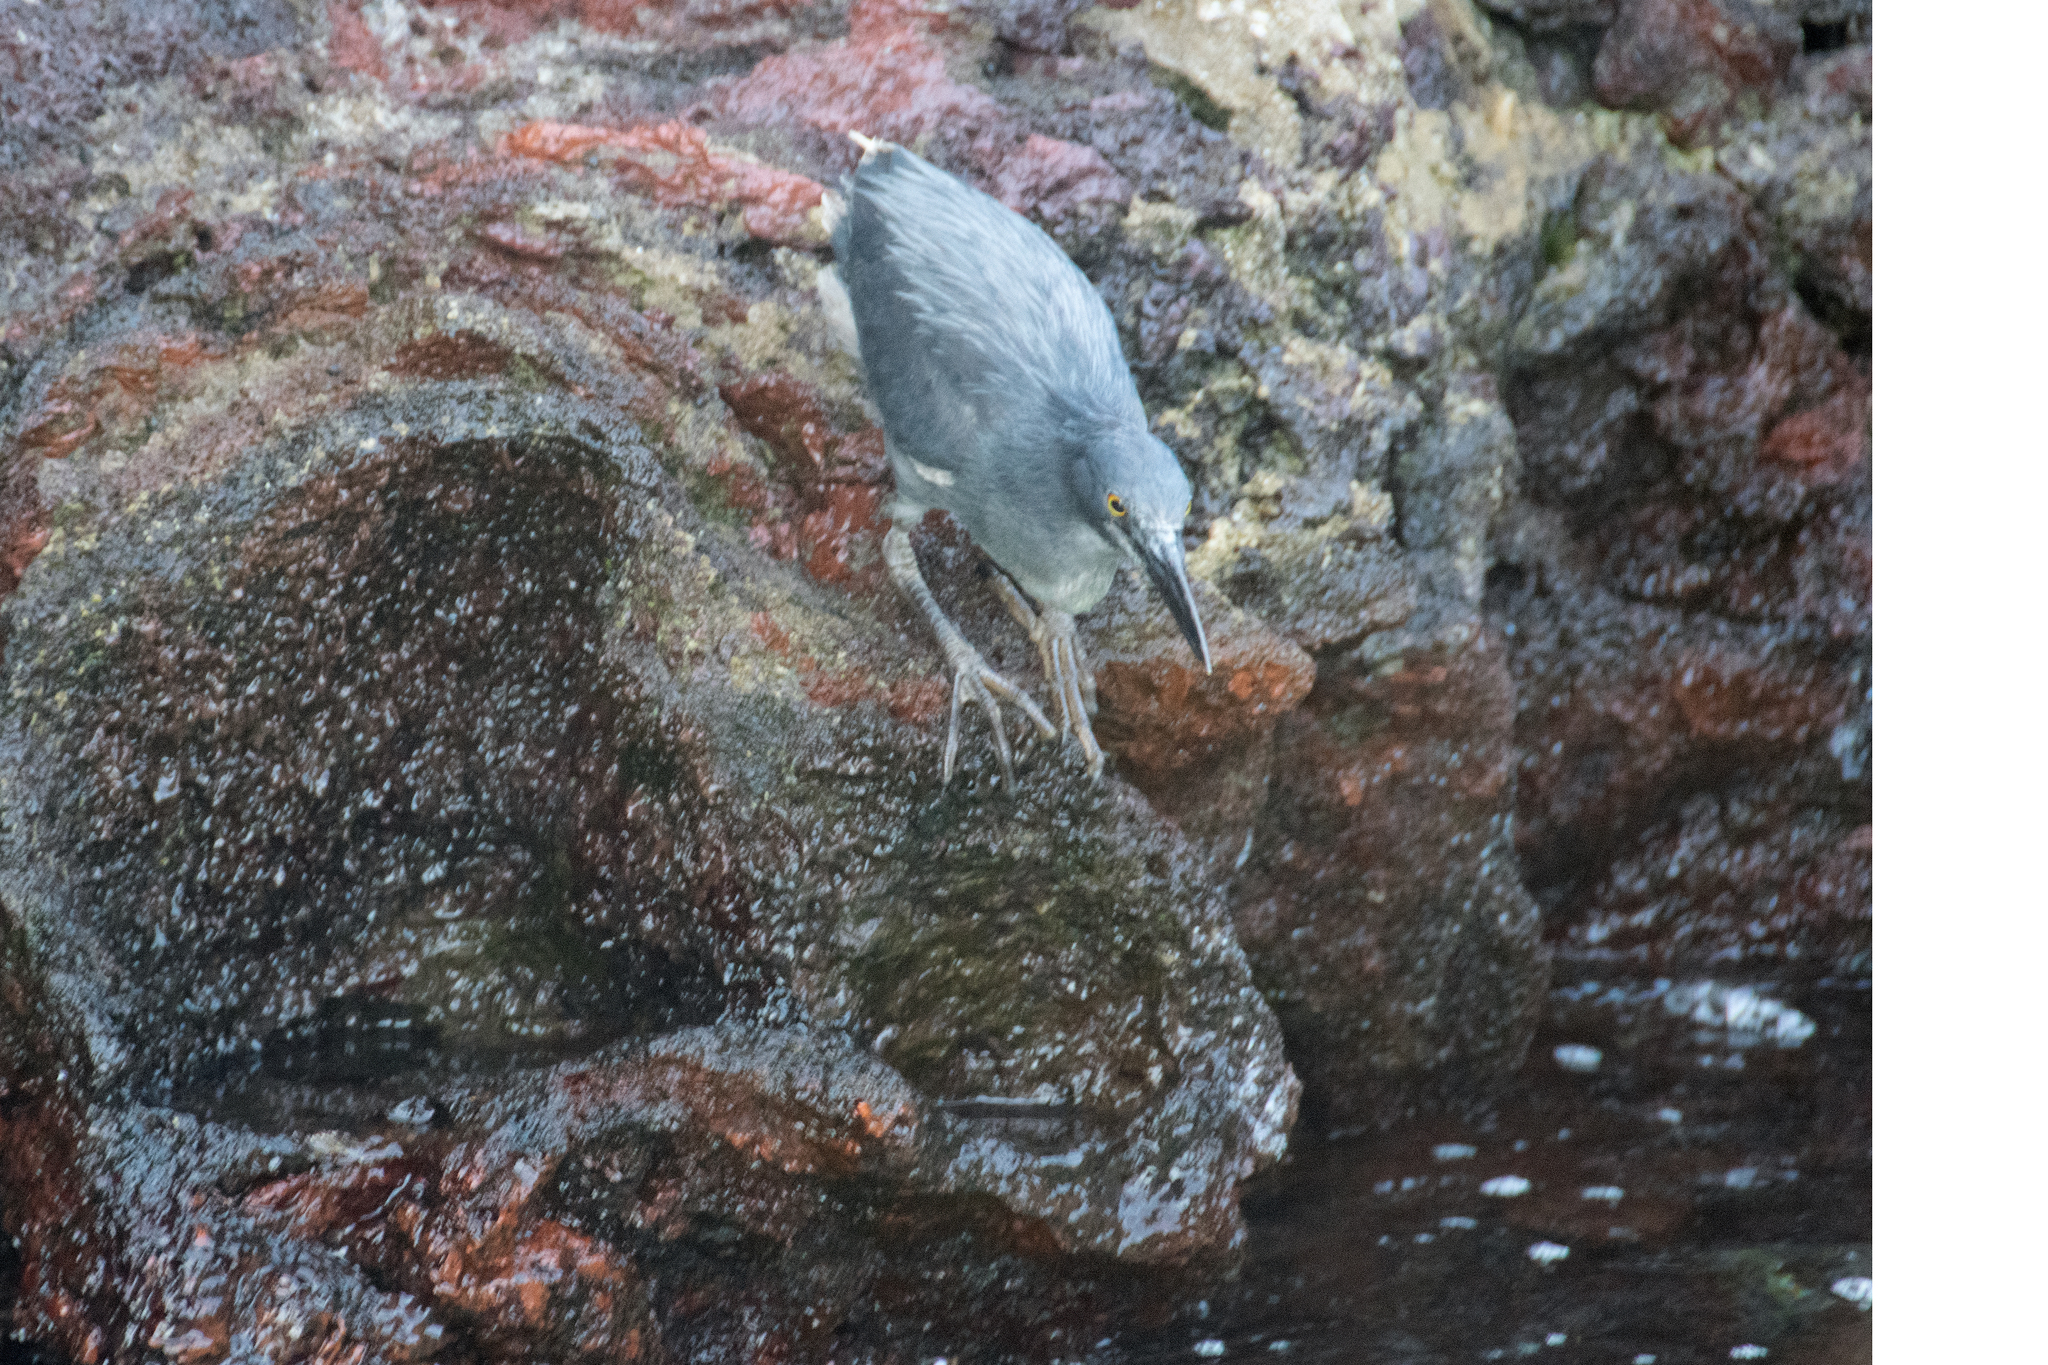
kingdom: Animalia
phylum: Chordata
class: Aves
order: Pelecaniformes
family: Ardeidae
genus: Butorides
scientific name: Butorides striata
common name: Striated heron
